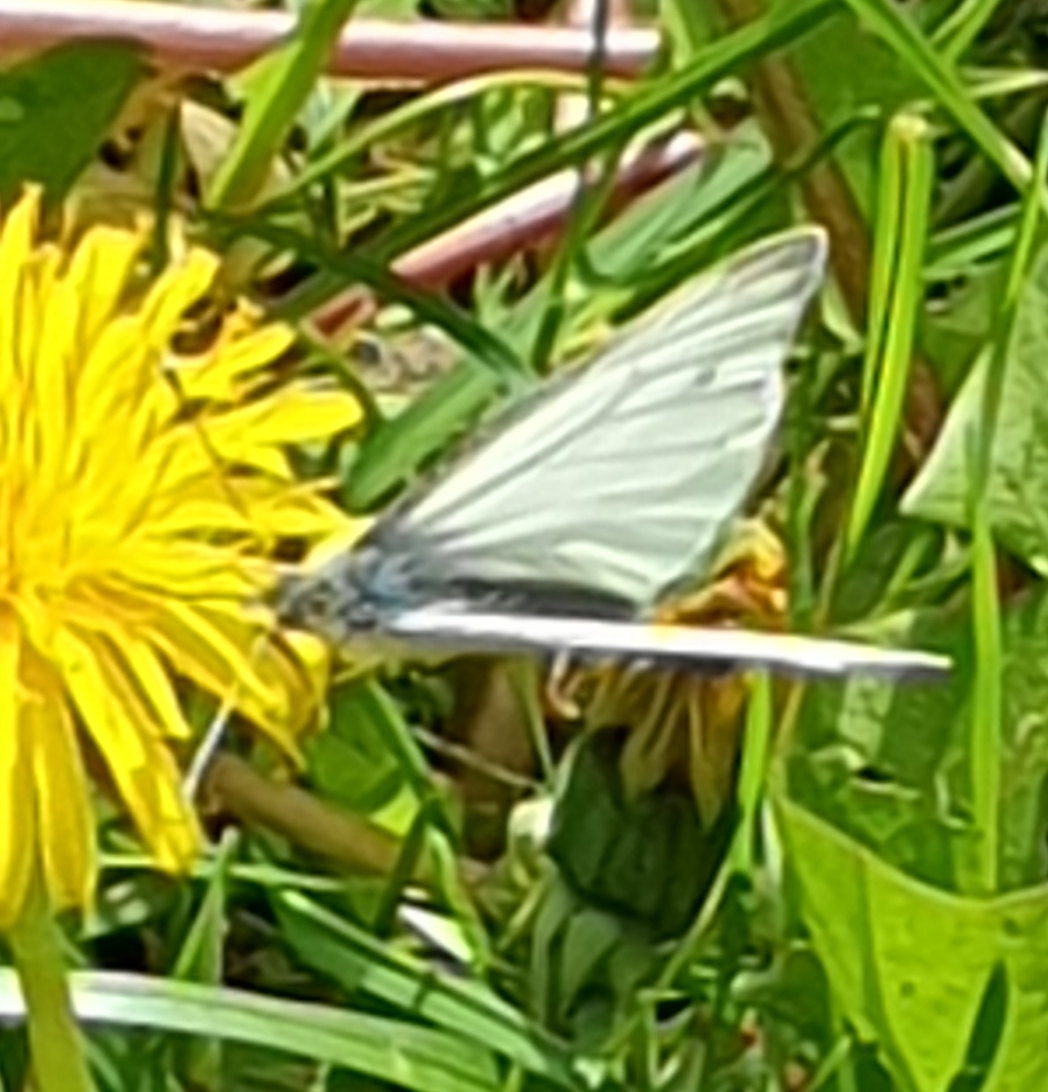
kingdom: Animalia
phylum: Arthropoda
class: Insecta
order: Lepidoptera
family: Pieridae
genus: Pieris
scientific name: Pieris napi
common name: Green-veined white
